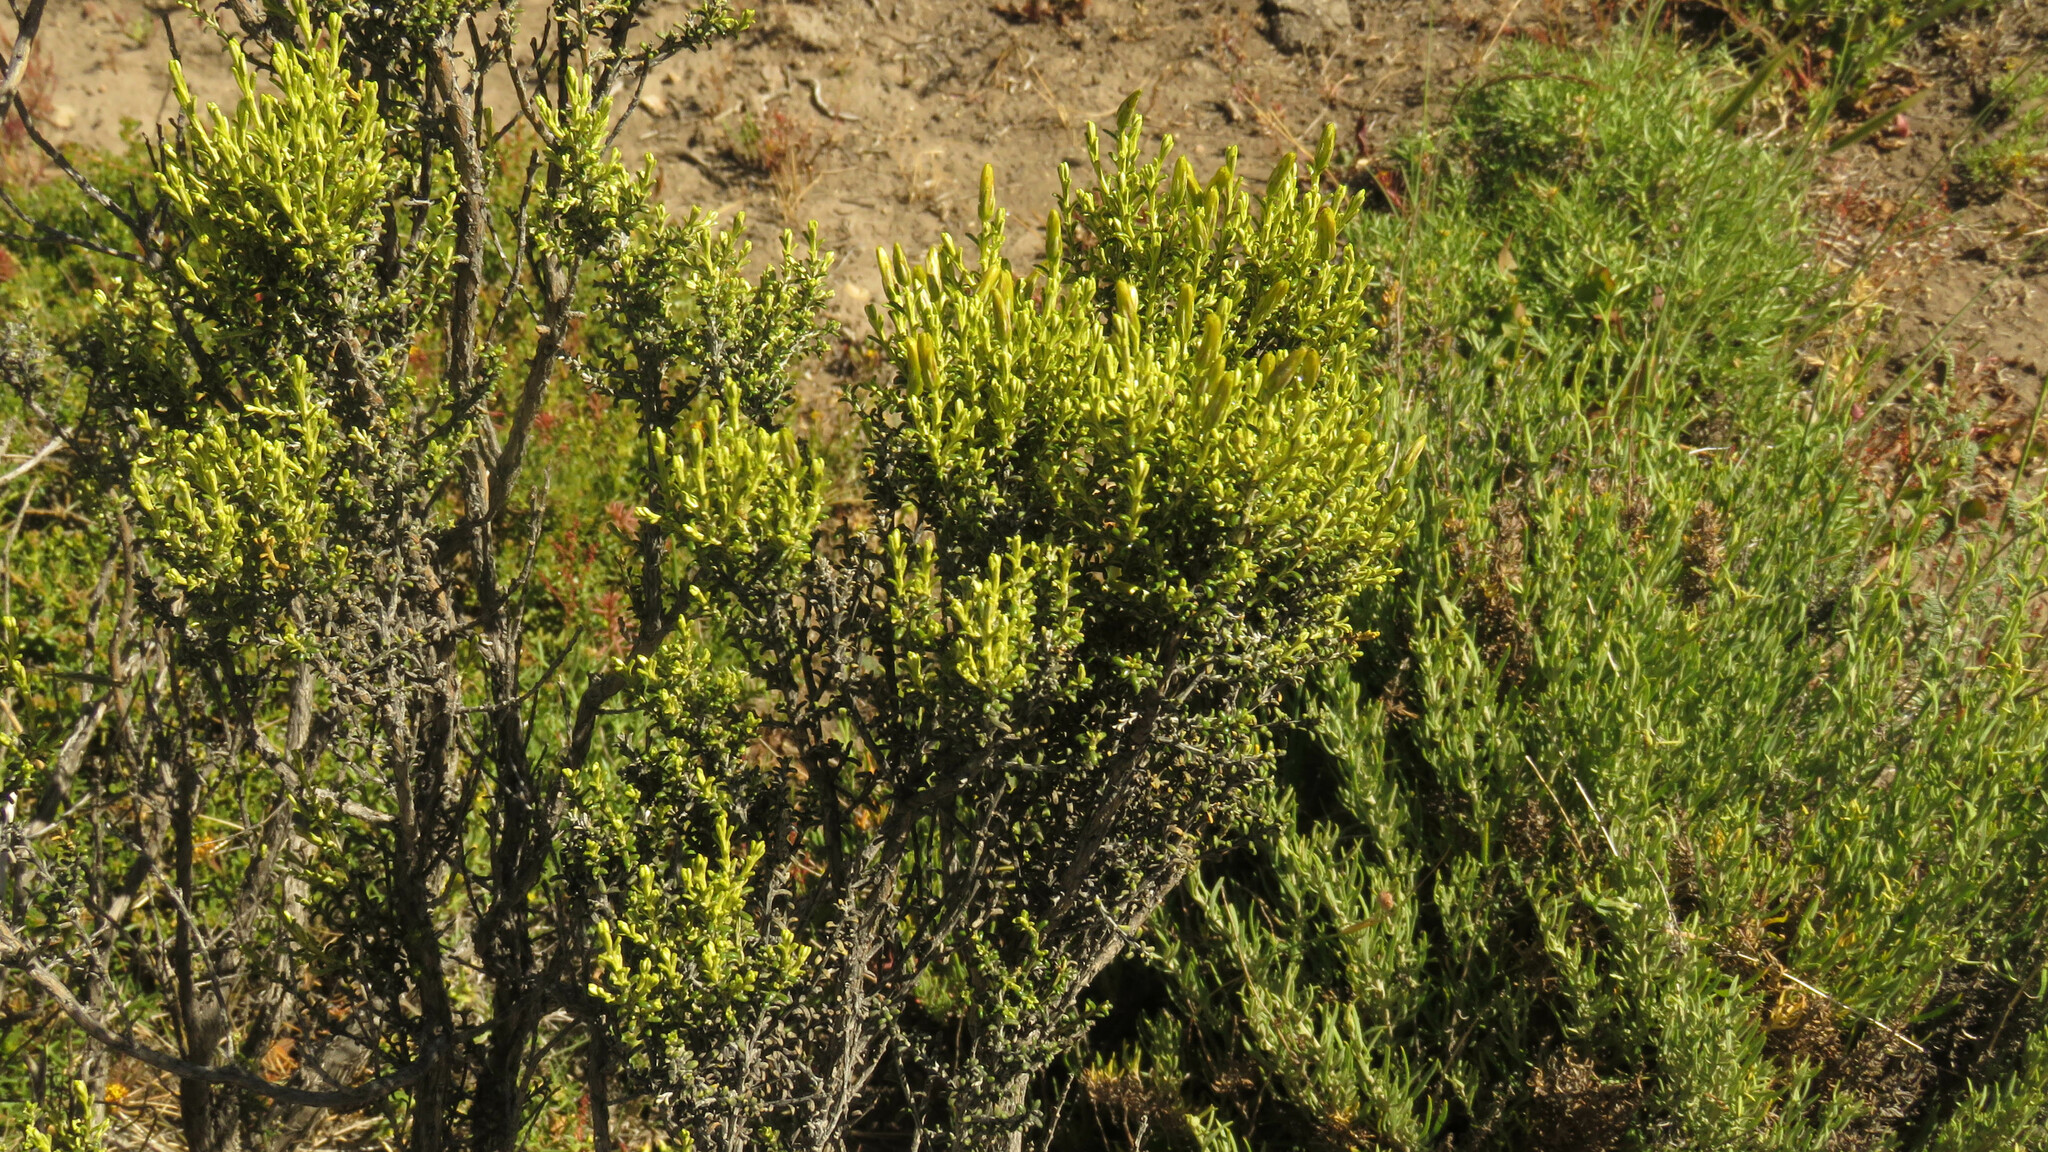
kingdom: Plantae
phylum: Tracheophyta
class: Magnoliopsida
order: Asterales
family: Asteraceae
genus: Nardophyllum
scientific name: Nardophyllum bryoides
